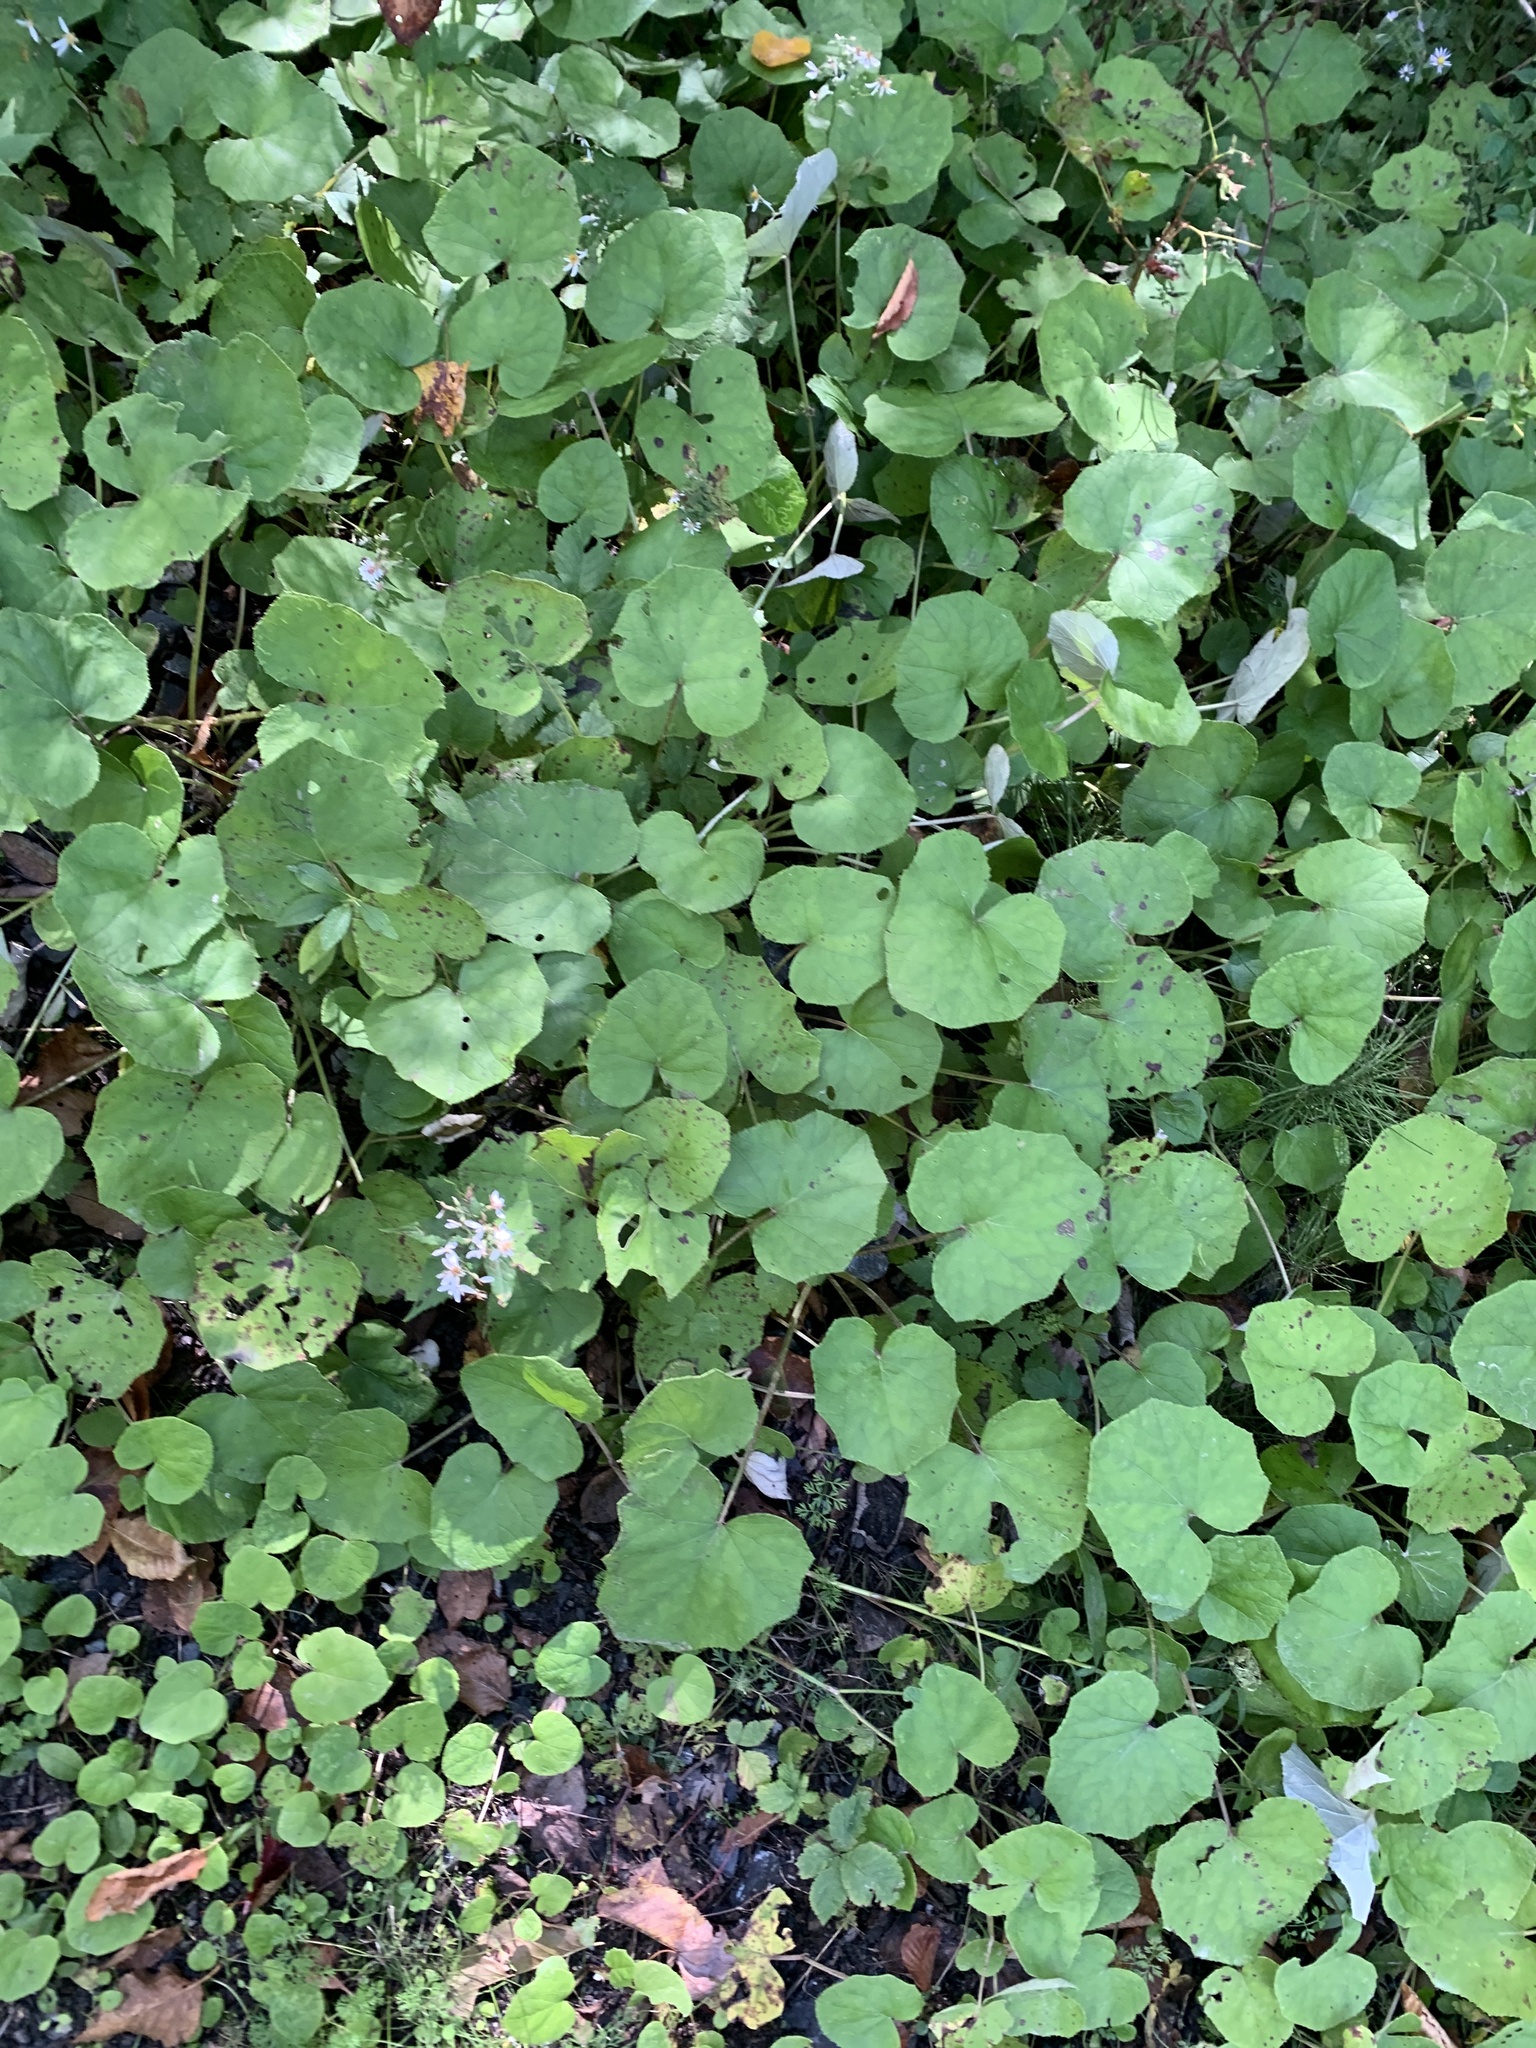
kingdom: Plantae
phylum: Tracheophyta
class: Magnoliopsida
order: Asterales
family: Asteraceae
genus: Tussilago
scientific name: Tussilago farfara
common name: Coltsfoot
